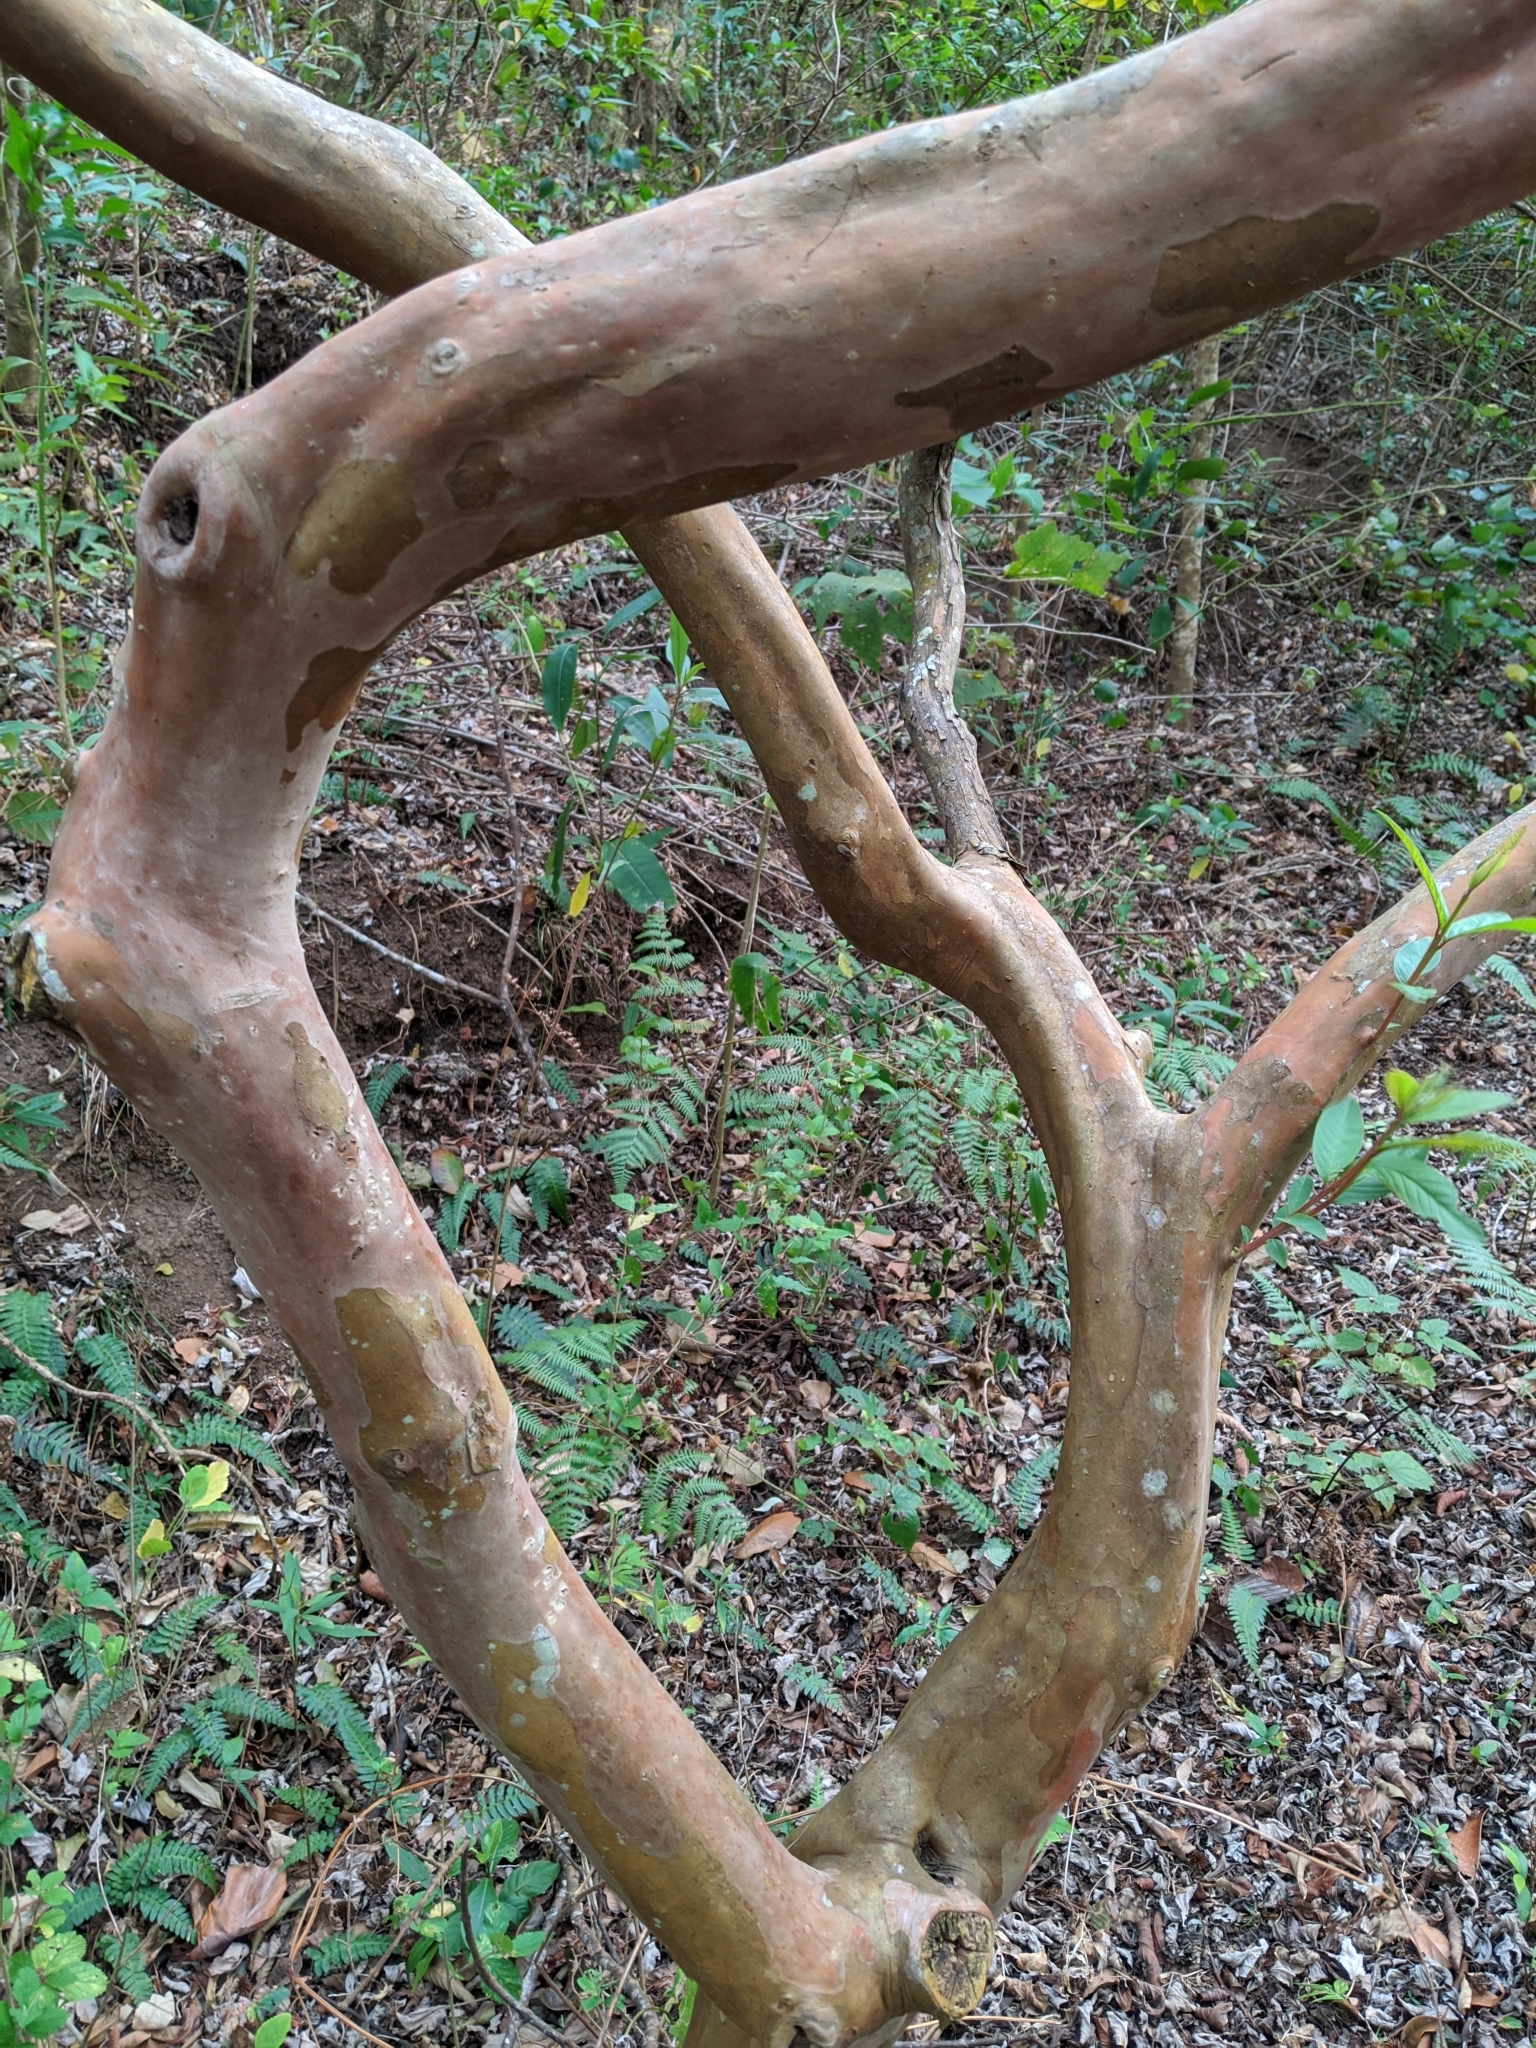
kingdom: Plantae
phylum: Tracheophyta
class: Magnoliopsida
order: Myrtales
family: Myrtaceae
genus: Psidium
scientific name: Psidium guajava
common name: Guava
